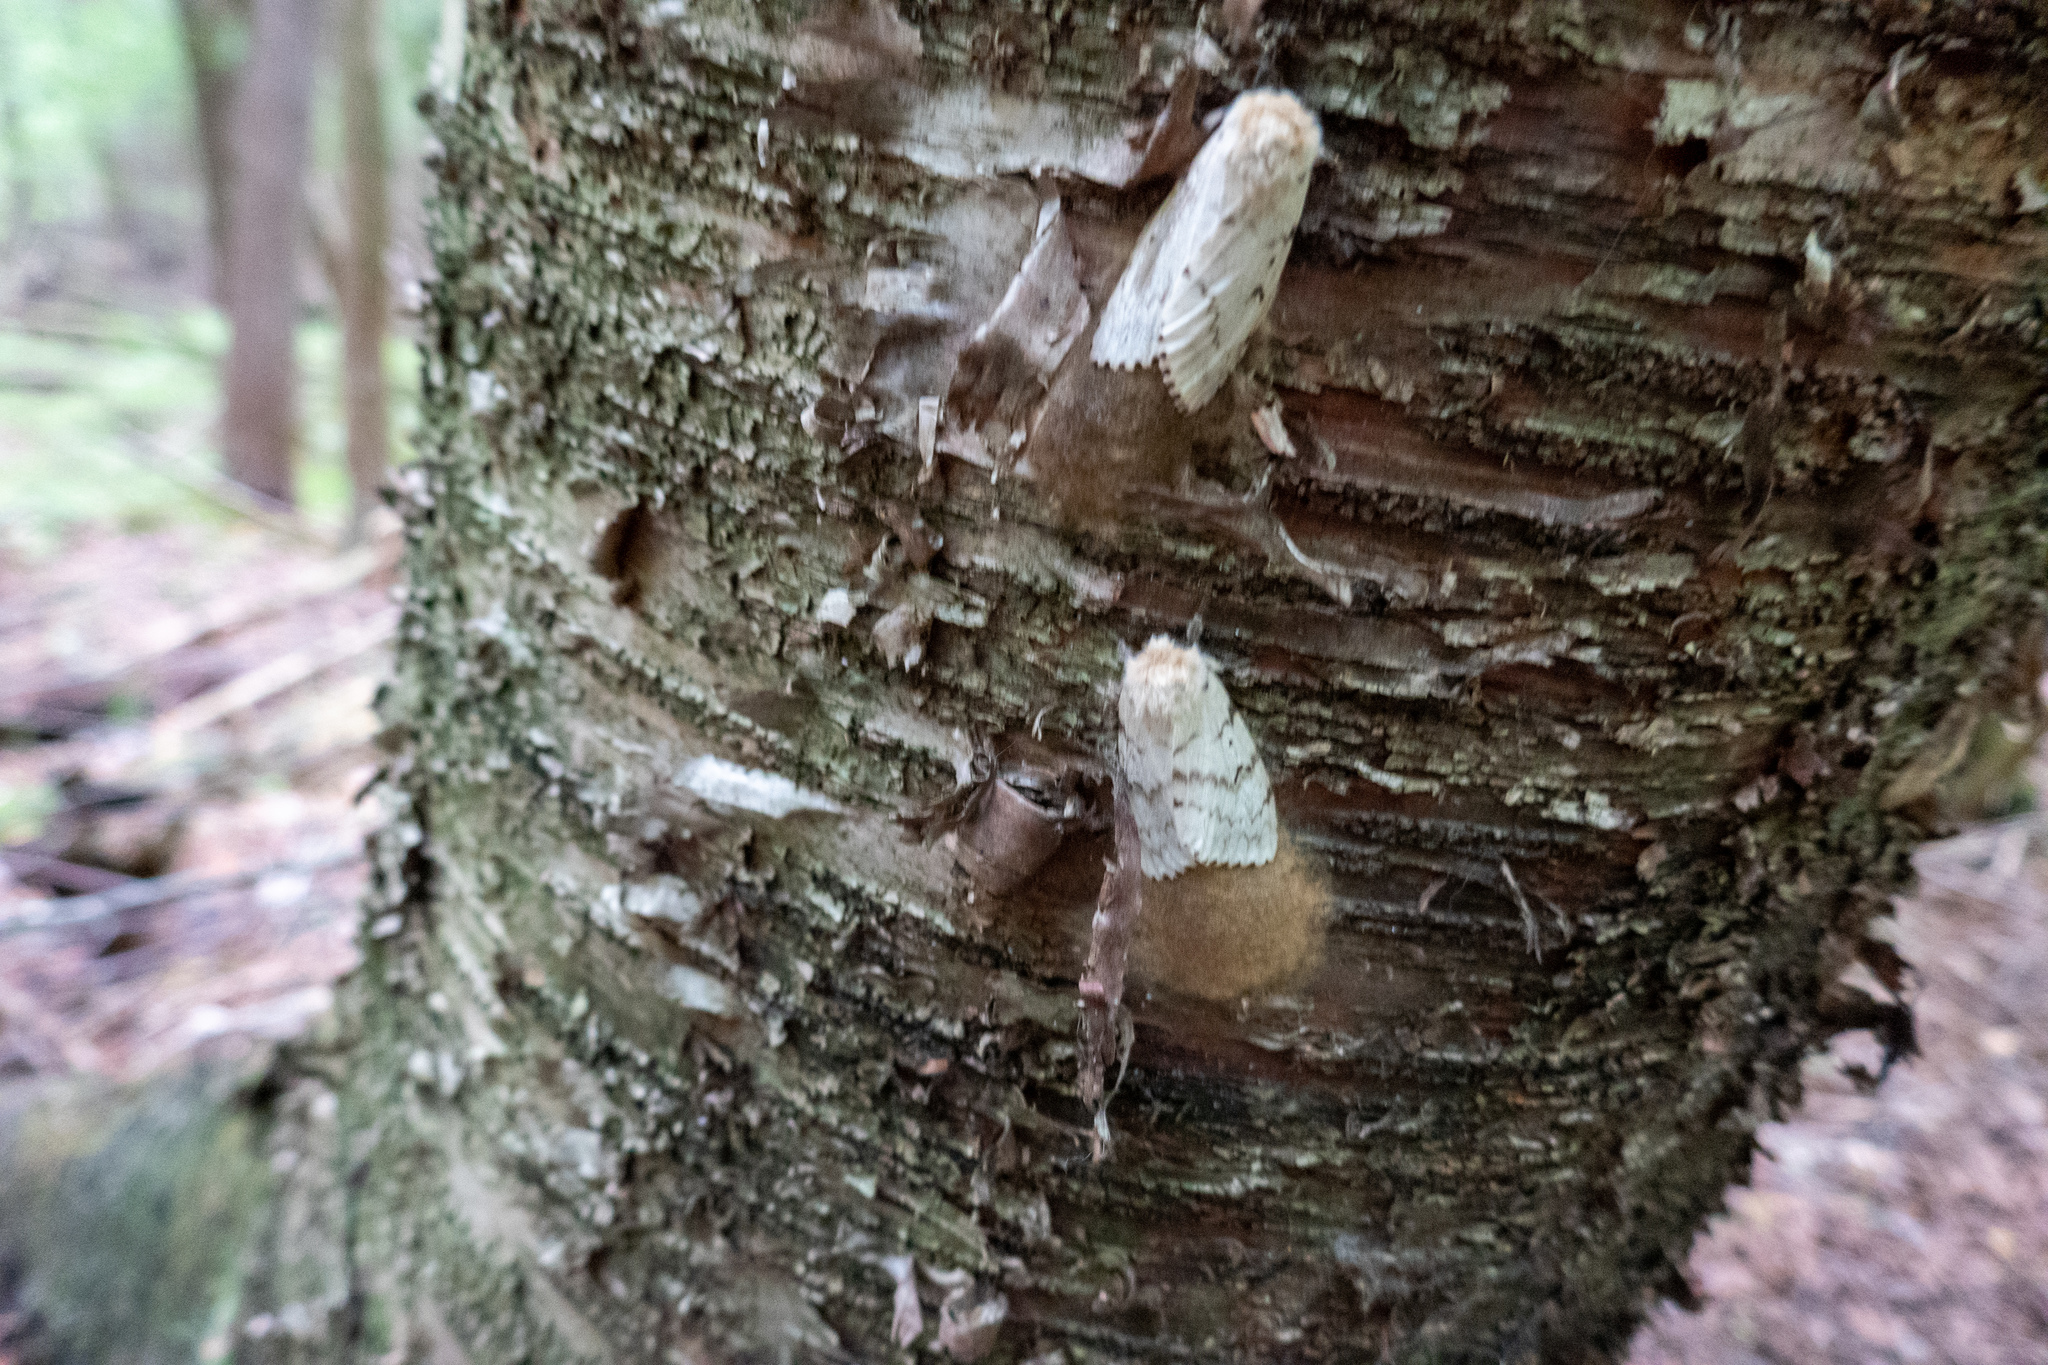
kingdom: Animalia
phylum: Arthropoda
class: Insecta
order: Lepidoptera
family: Erebidae
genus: Lymantria
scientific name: Lymantria dispar
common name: Gypsy moth
